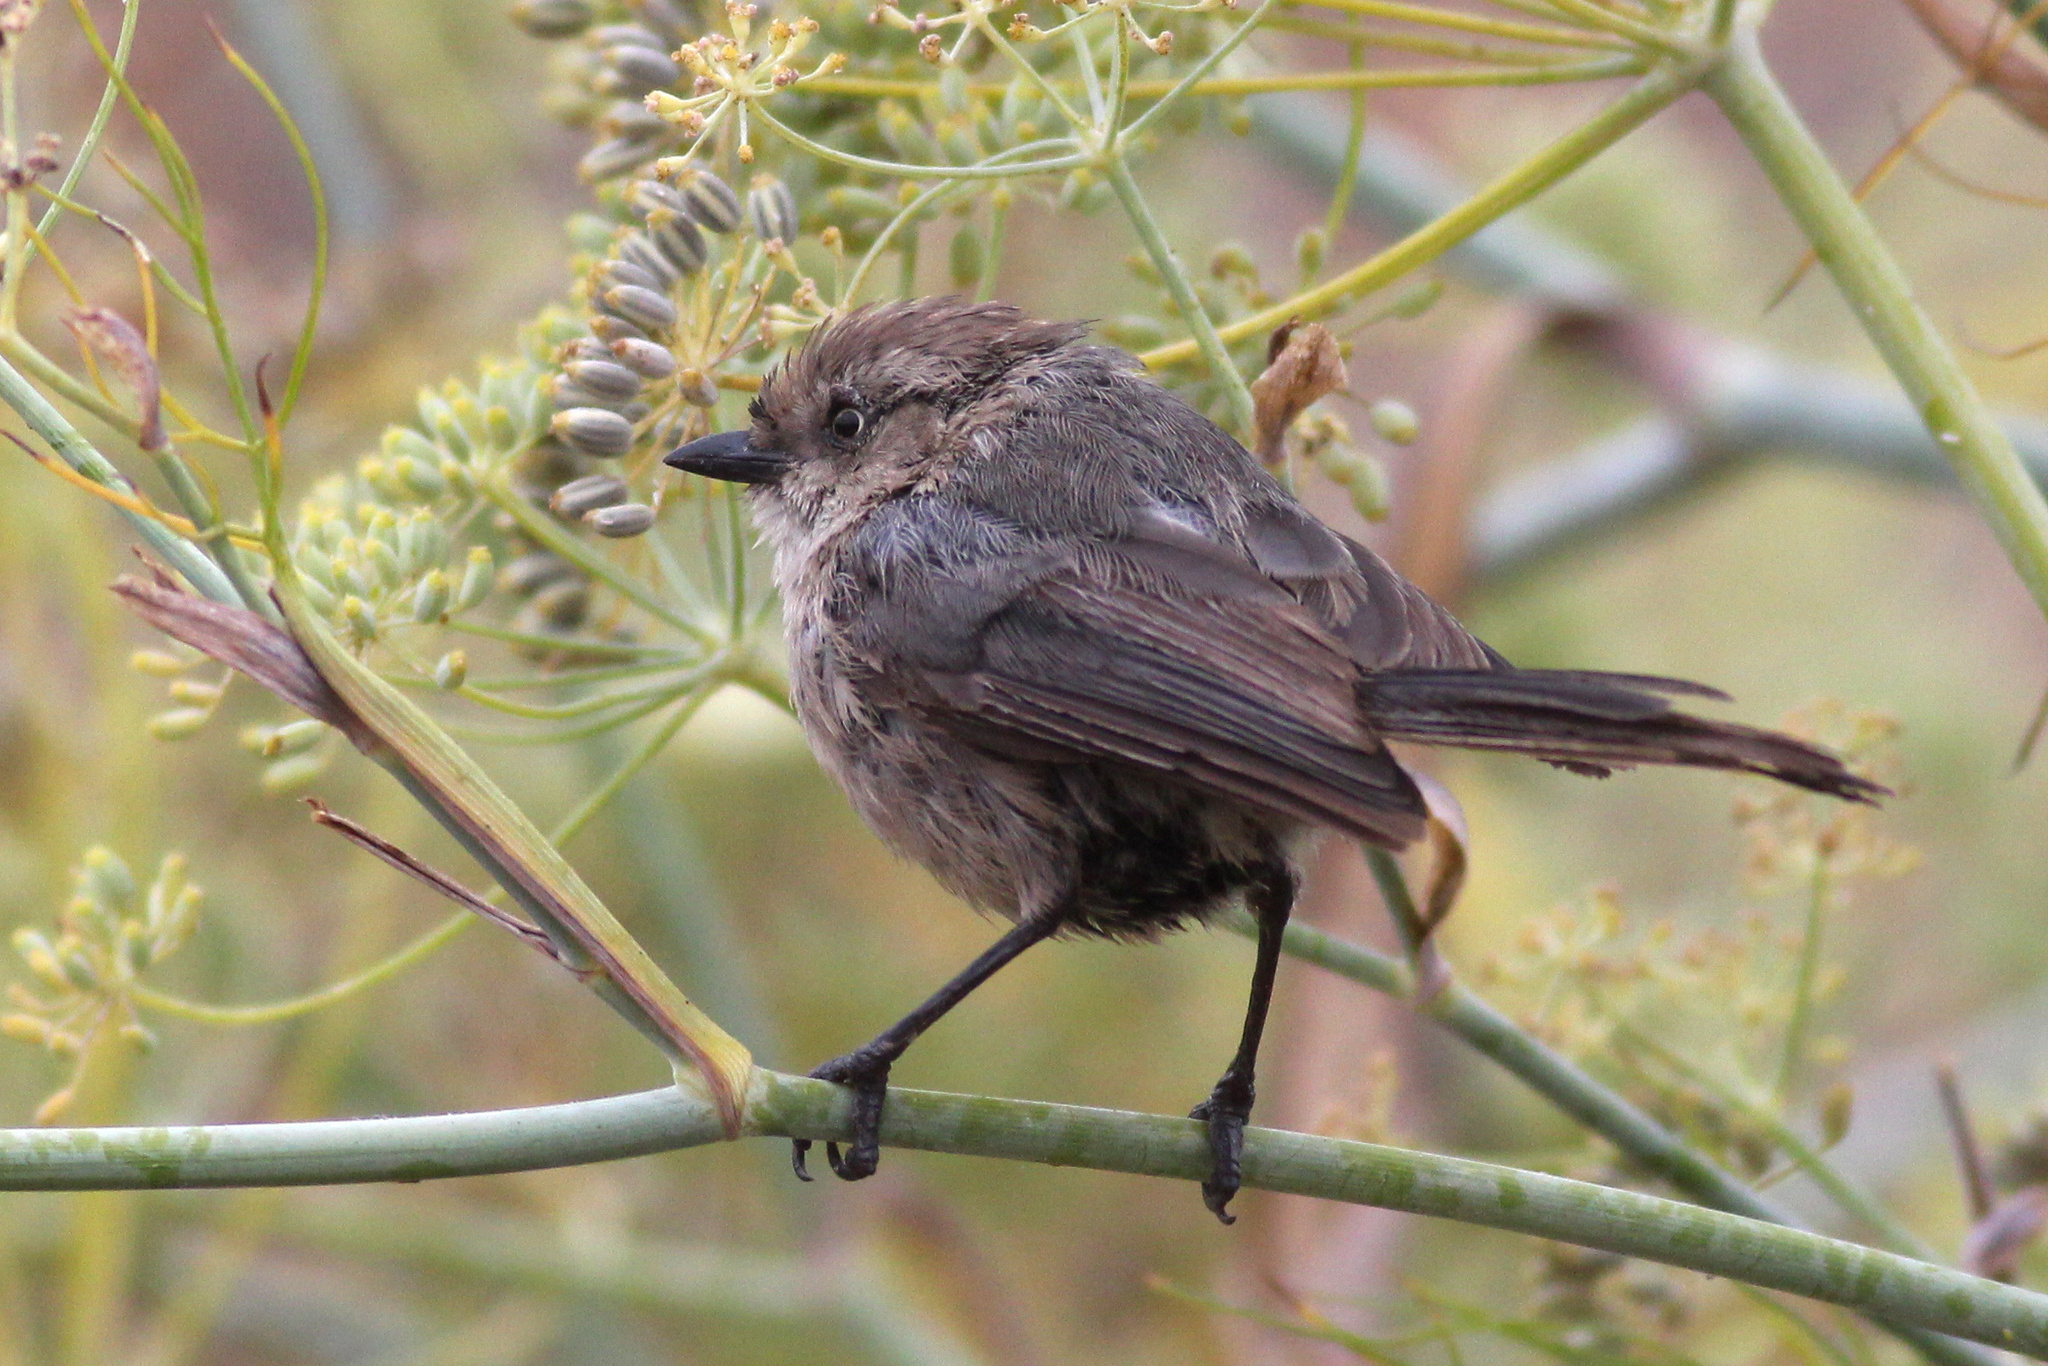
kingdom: Animalia
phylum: Chordata
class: Aves
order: Passeriformes
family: Aegithalidae
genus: Psaltriparus
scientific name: Psaltriparus minimus
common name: American bushtit
